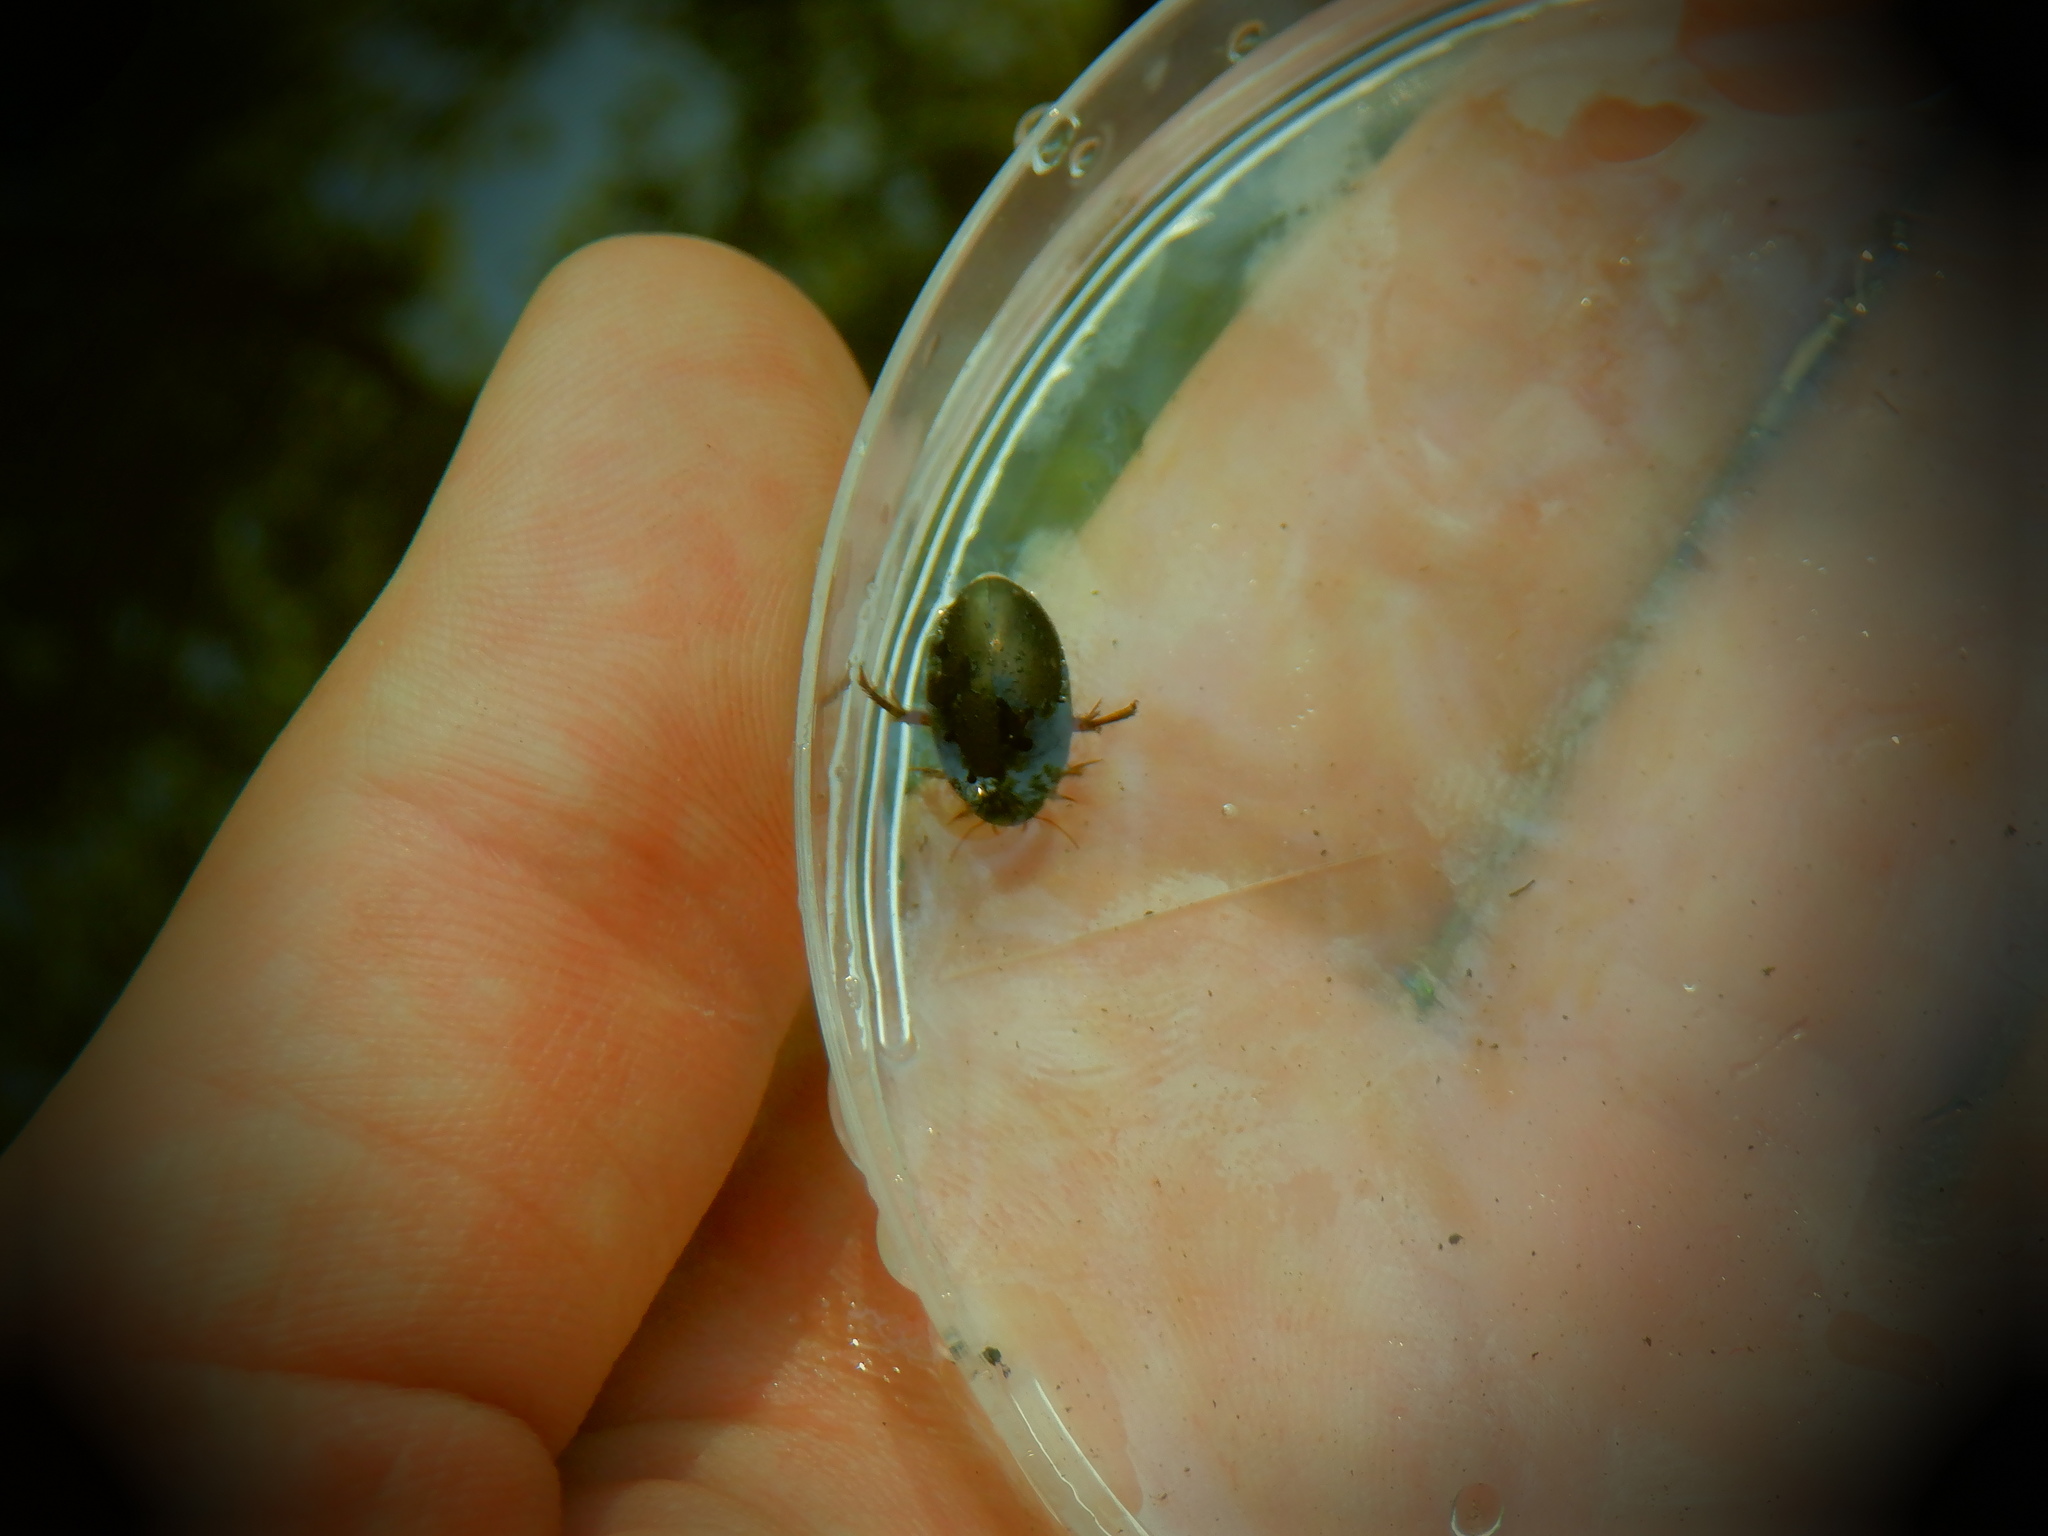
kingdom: Animalia
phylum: Arthropoda
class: Insecta
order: Coleoptera
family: Dytiscidae
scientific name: Dytiscidae
